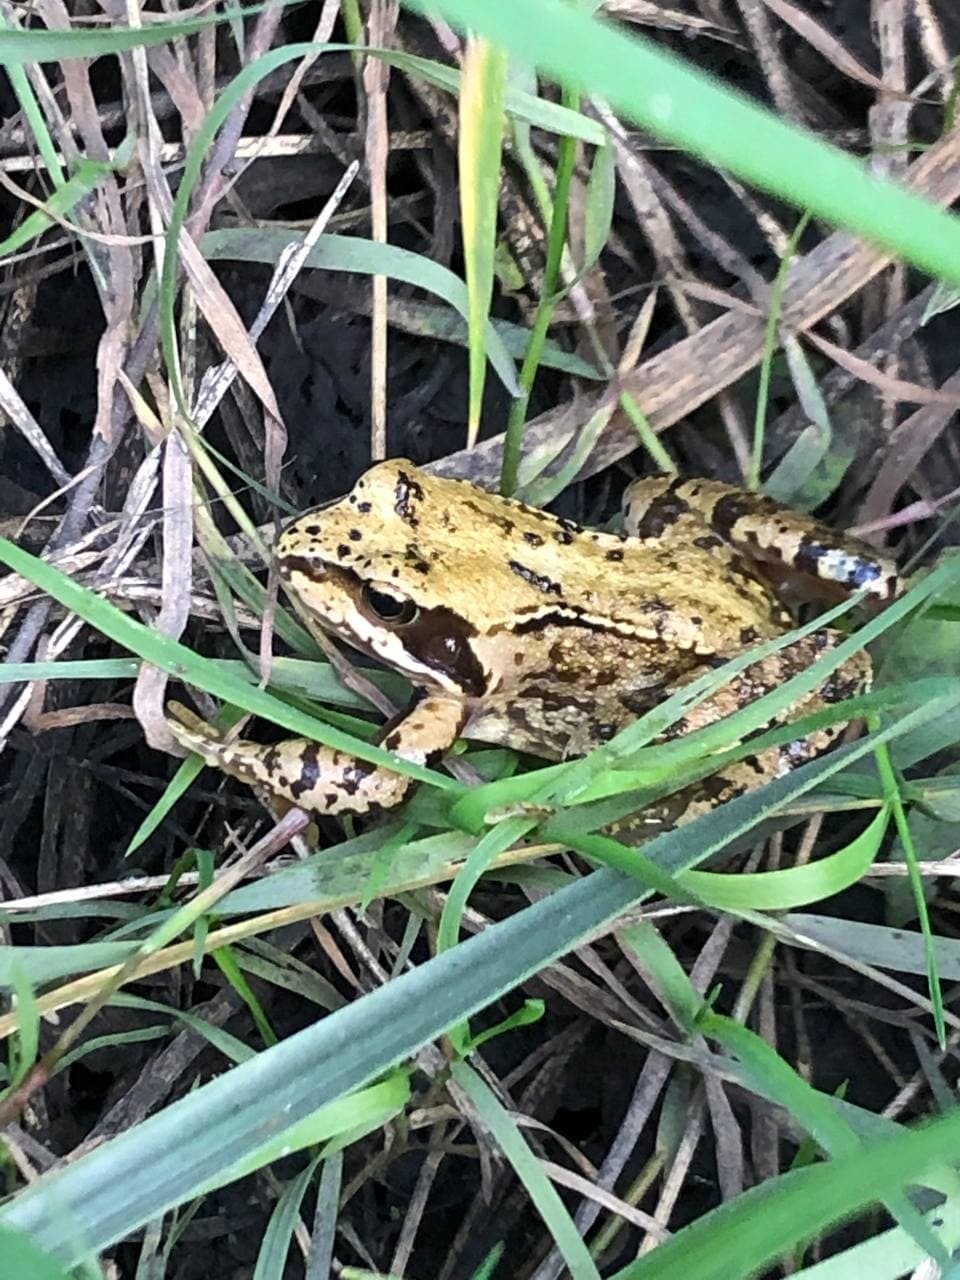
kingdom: Animalia
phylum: Chordata
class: Amphibia
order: Anura
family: Ranidae
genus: Rana
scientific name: Rana temporaria
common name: Common frog
